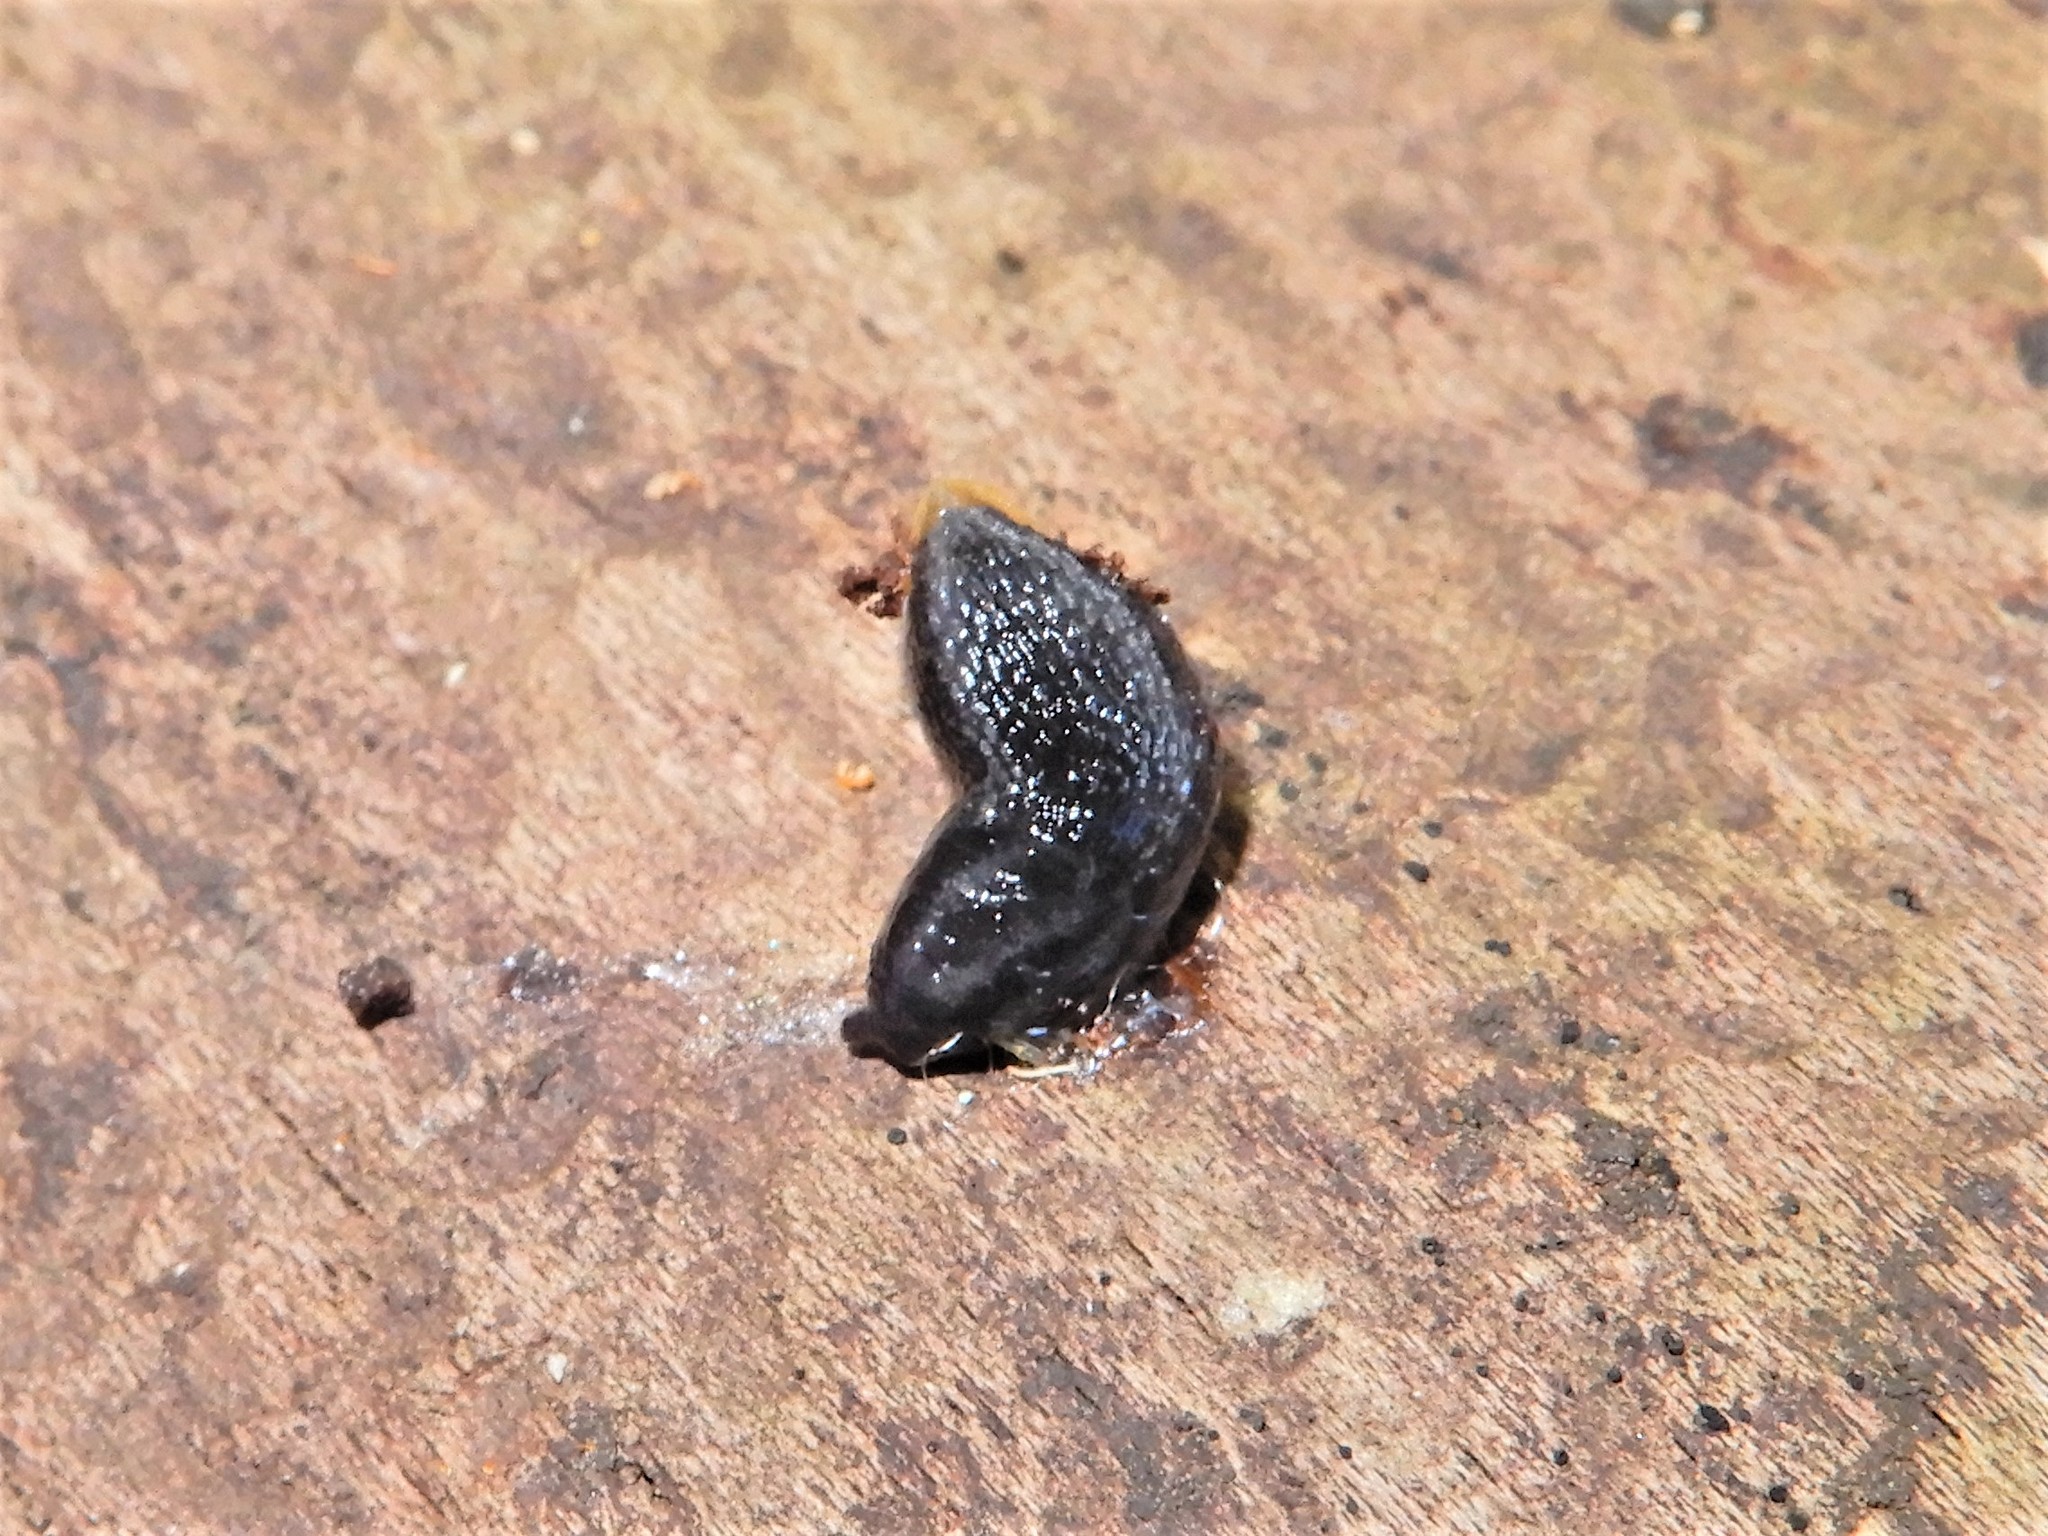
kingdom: Animalia
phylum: Mollusca
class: Gastropoda
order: Stylommatophora
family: Arionidae
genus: Kobeltia
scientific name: Kobeltia
